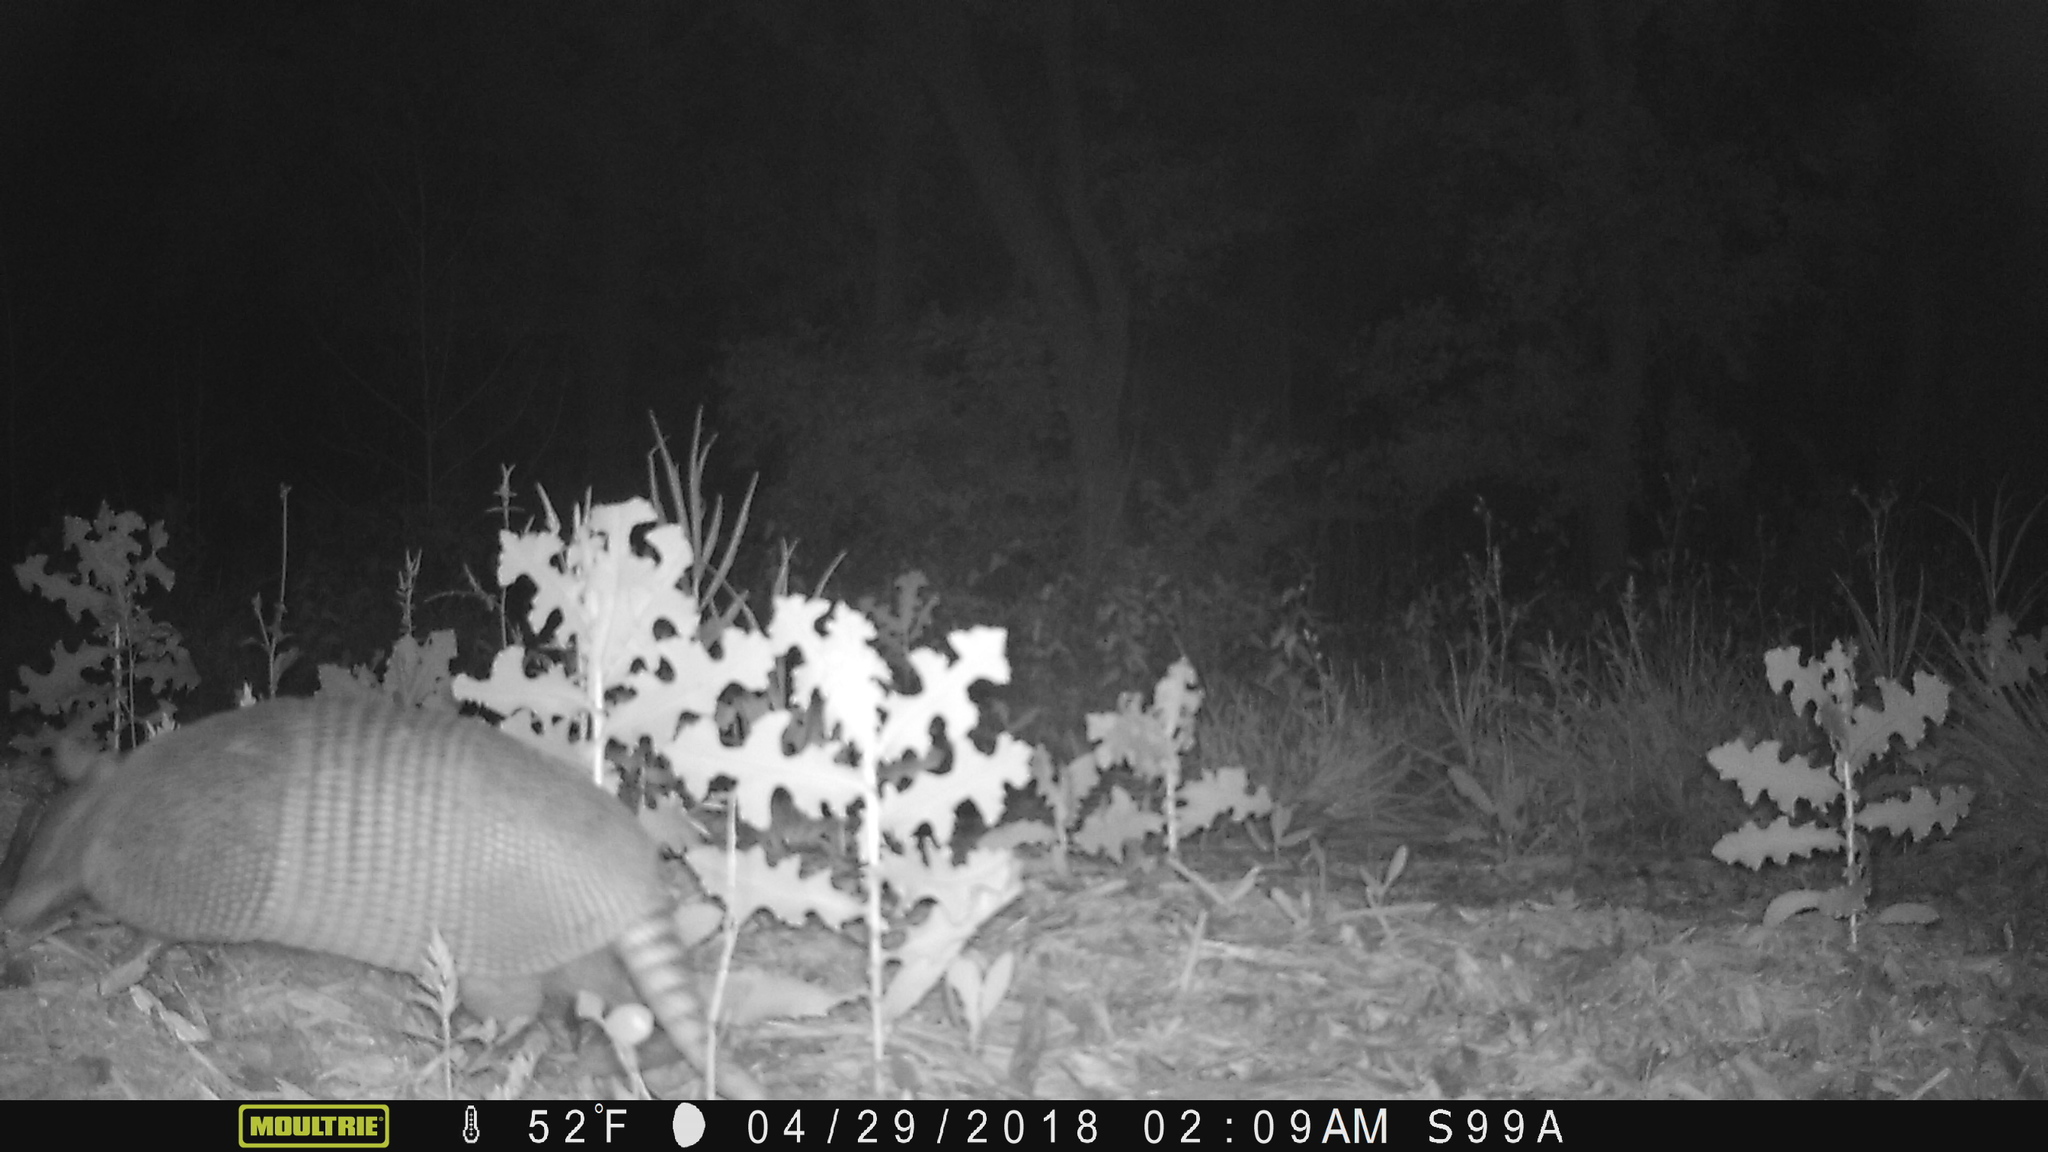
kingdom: Animalia
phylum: Chordata
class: Mammalia
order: Cingulata
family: Dasypodidae
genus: Dasypus
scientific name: Dasypus novemcinctus
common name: Nine-banded armadillo
